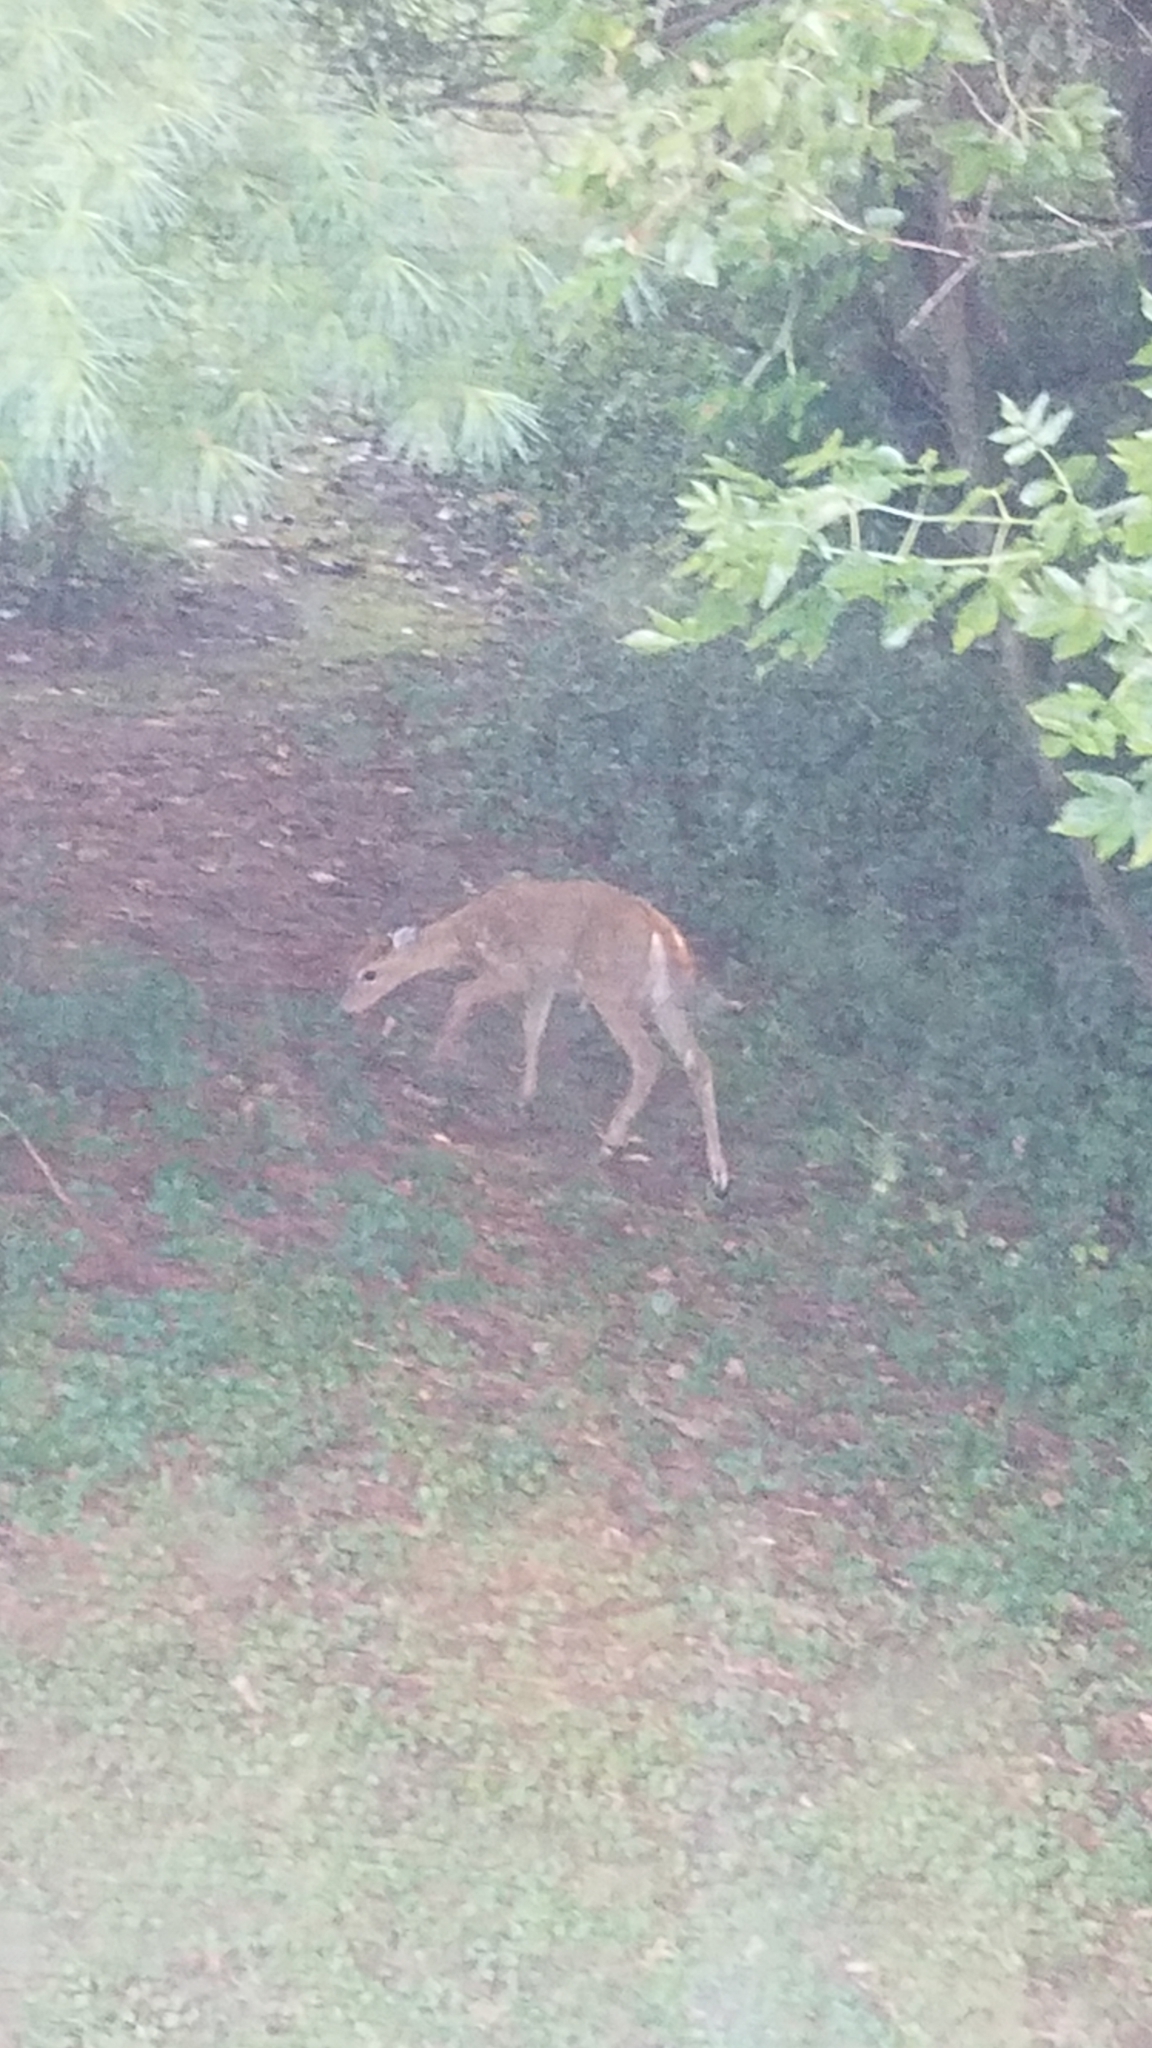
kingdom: Animalia
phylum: Chordata
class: Mammalia
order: Artiodactyla
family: Cervidae
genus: Odocoileus
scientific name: Odocoileus virginianus
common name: White-tailed deer
